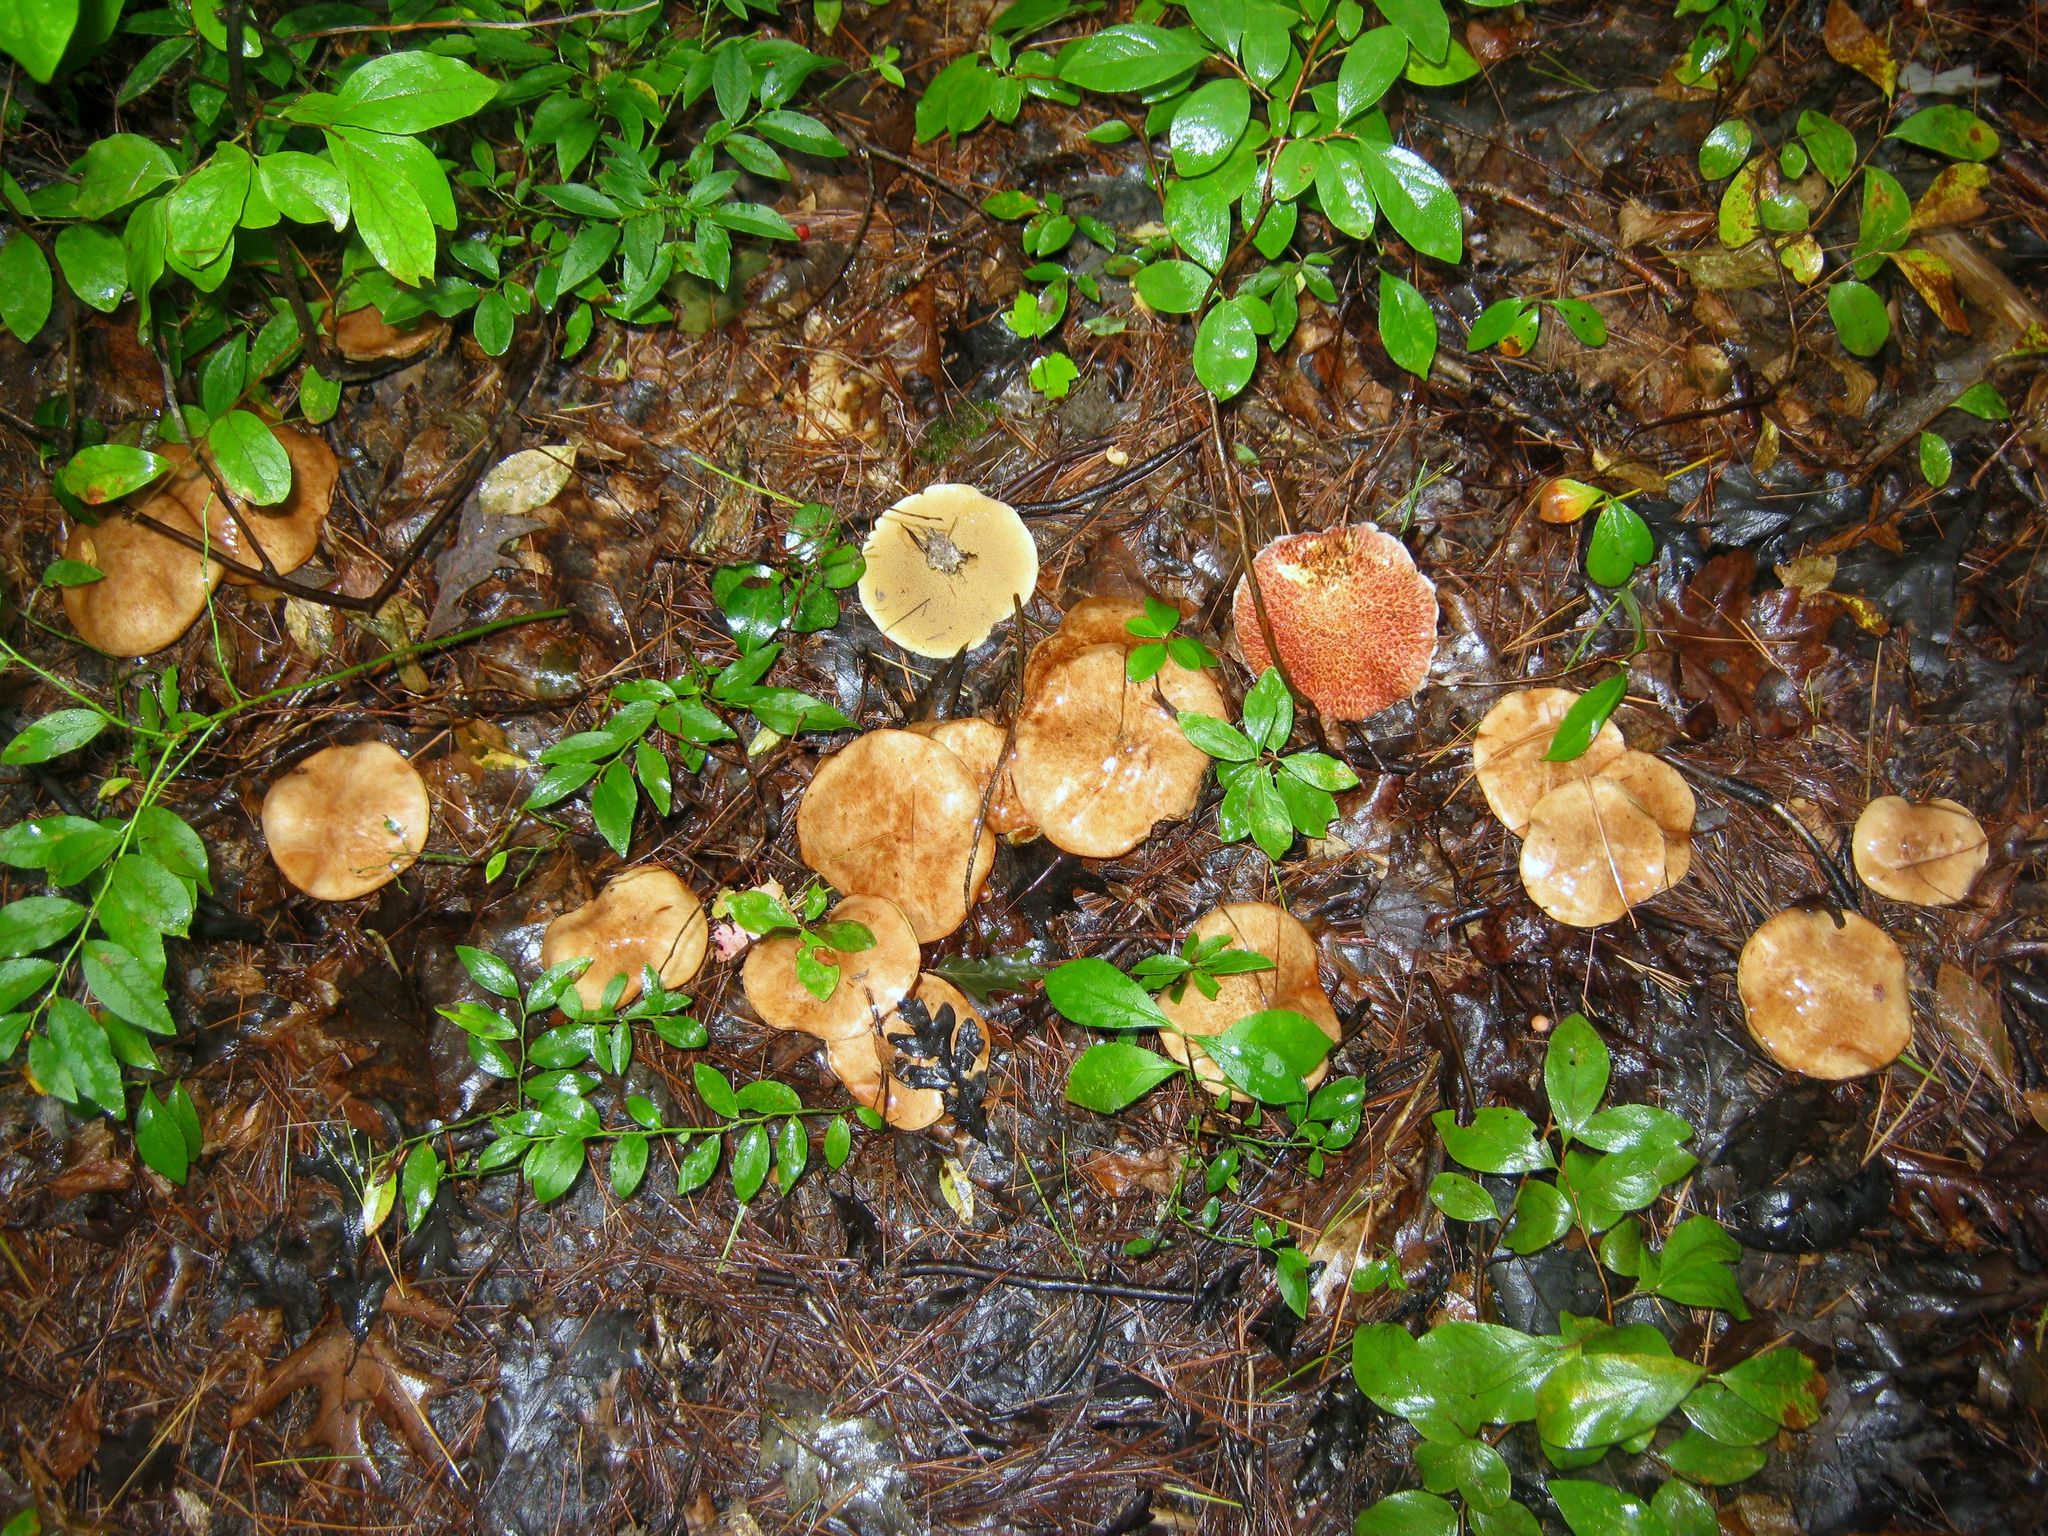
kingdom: Fungi
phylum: Basidiomycota
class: Agaricomycetes
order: Boletales
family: Suillaceae
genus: Suillus
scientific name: Suillus acidus
